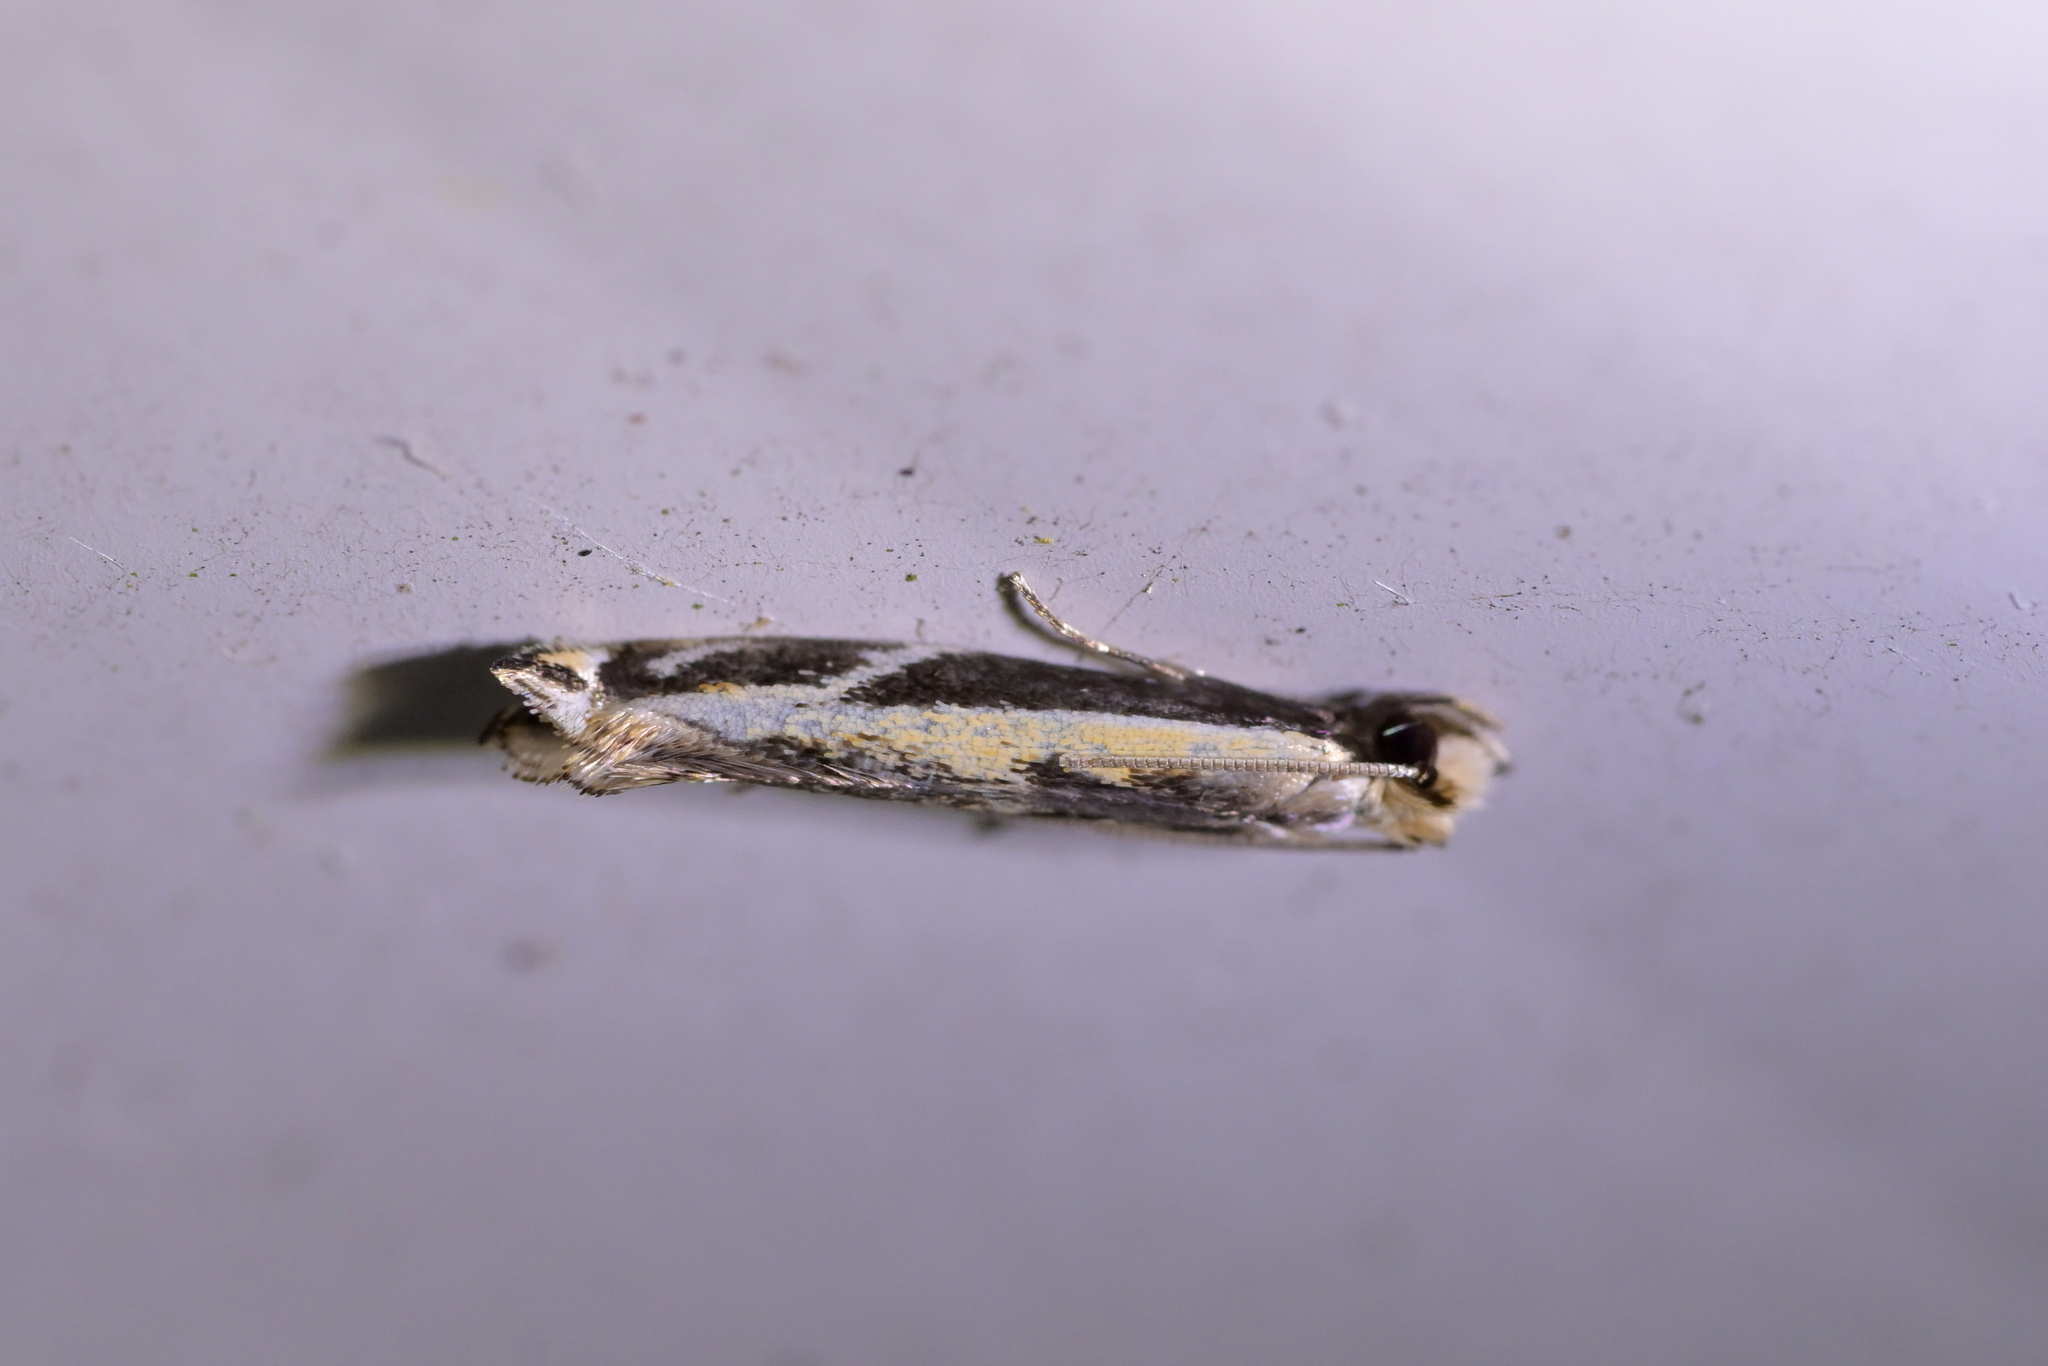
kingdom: Animalia
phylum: Arthropoda
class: Insecta
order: Lepidoptera
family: Tineidae
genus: Erechthias
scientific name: Erechthias terminella
